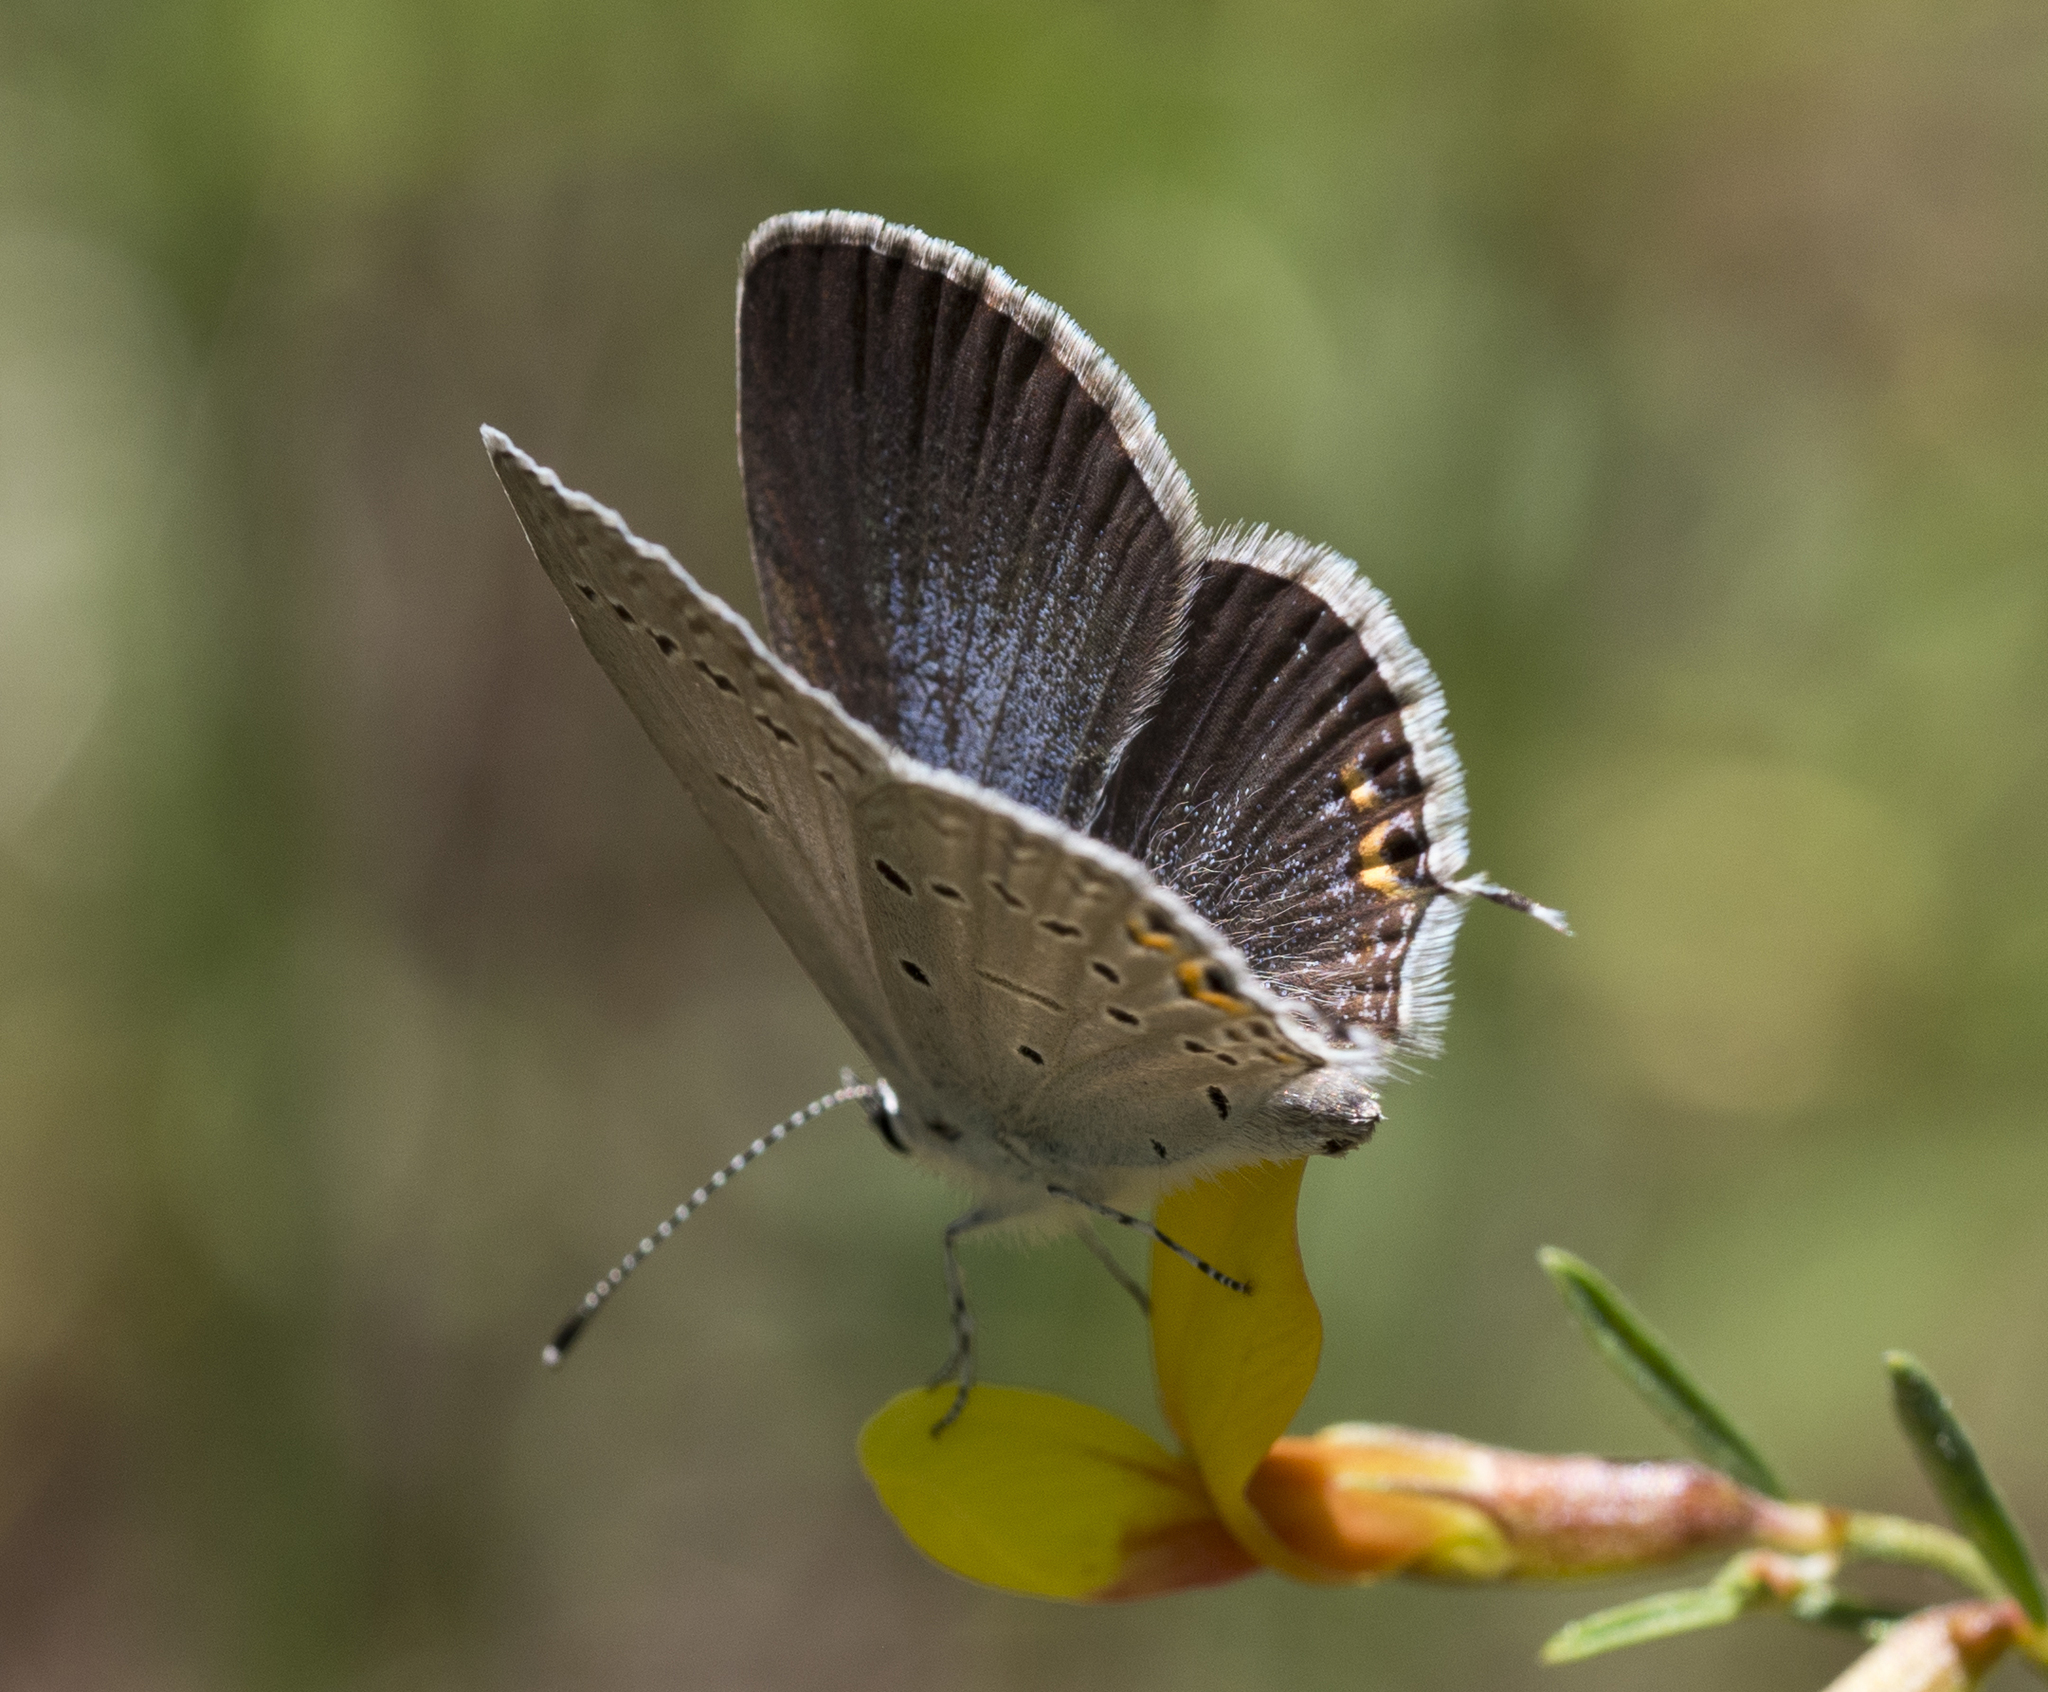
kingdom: Animalia
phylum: Arthropoda
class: Insecta
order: Lepidoptera
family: Lycaenidae
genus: Elkalyce
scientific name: Elkalyce amyntula
